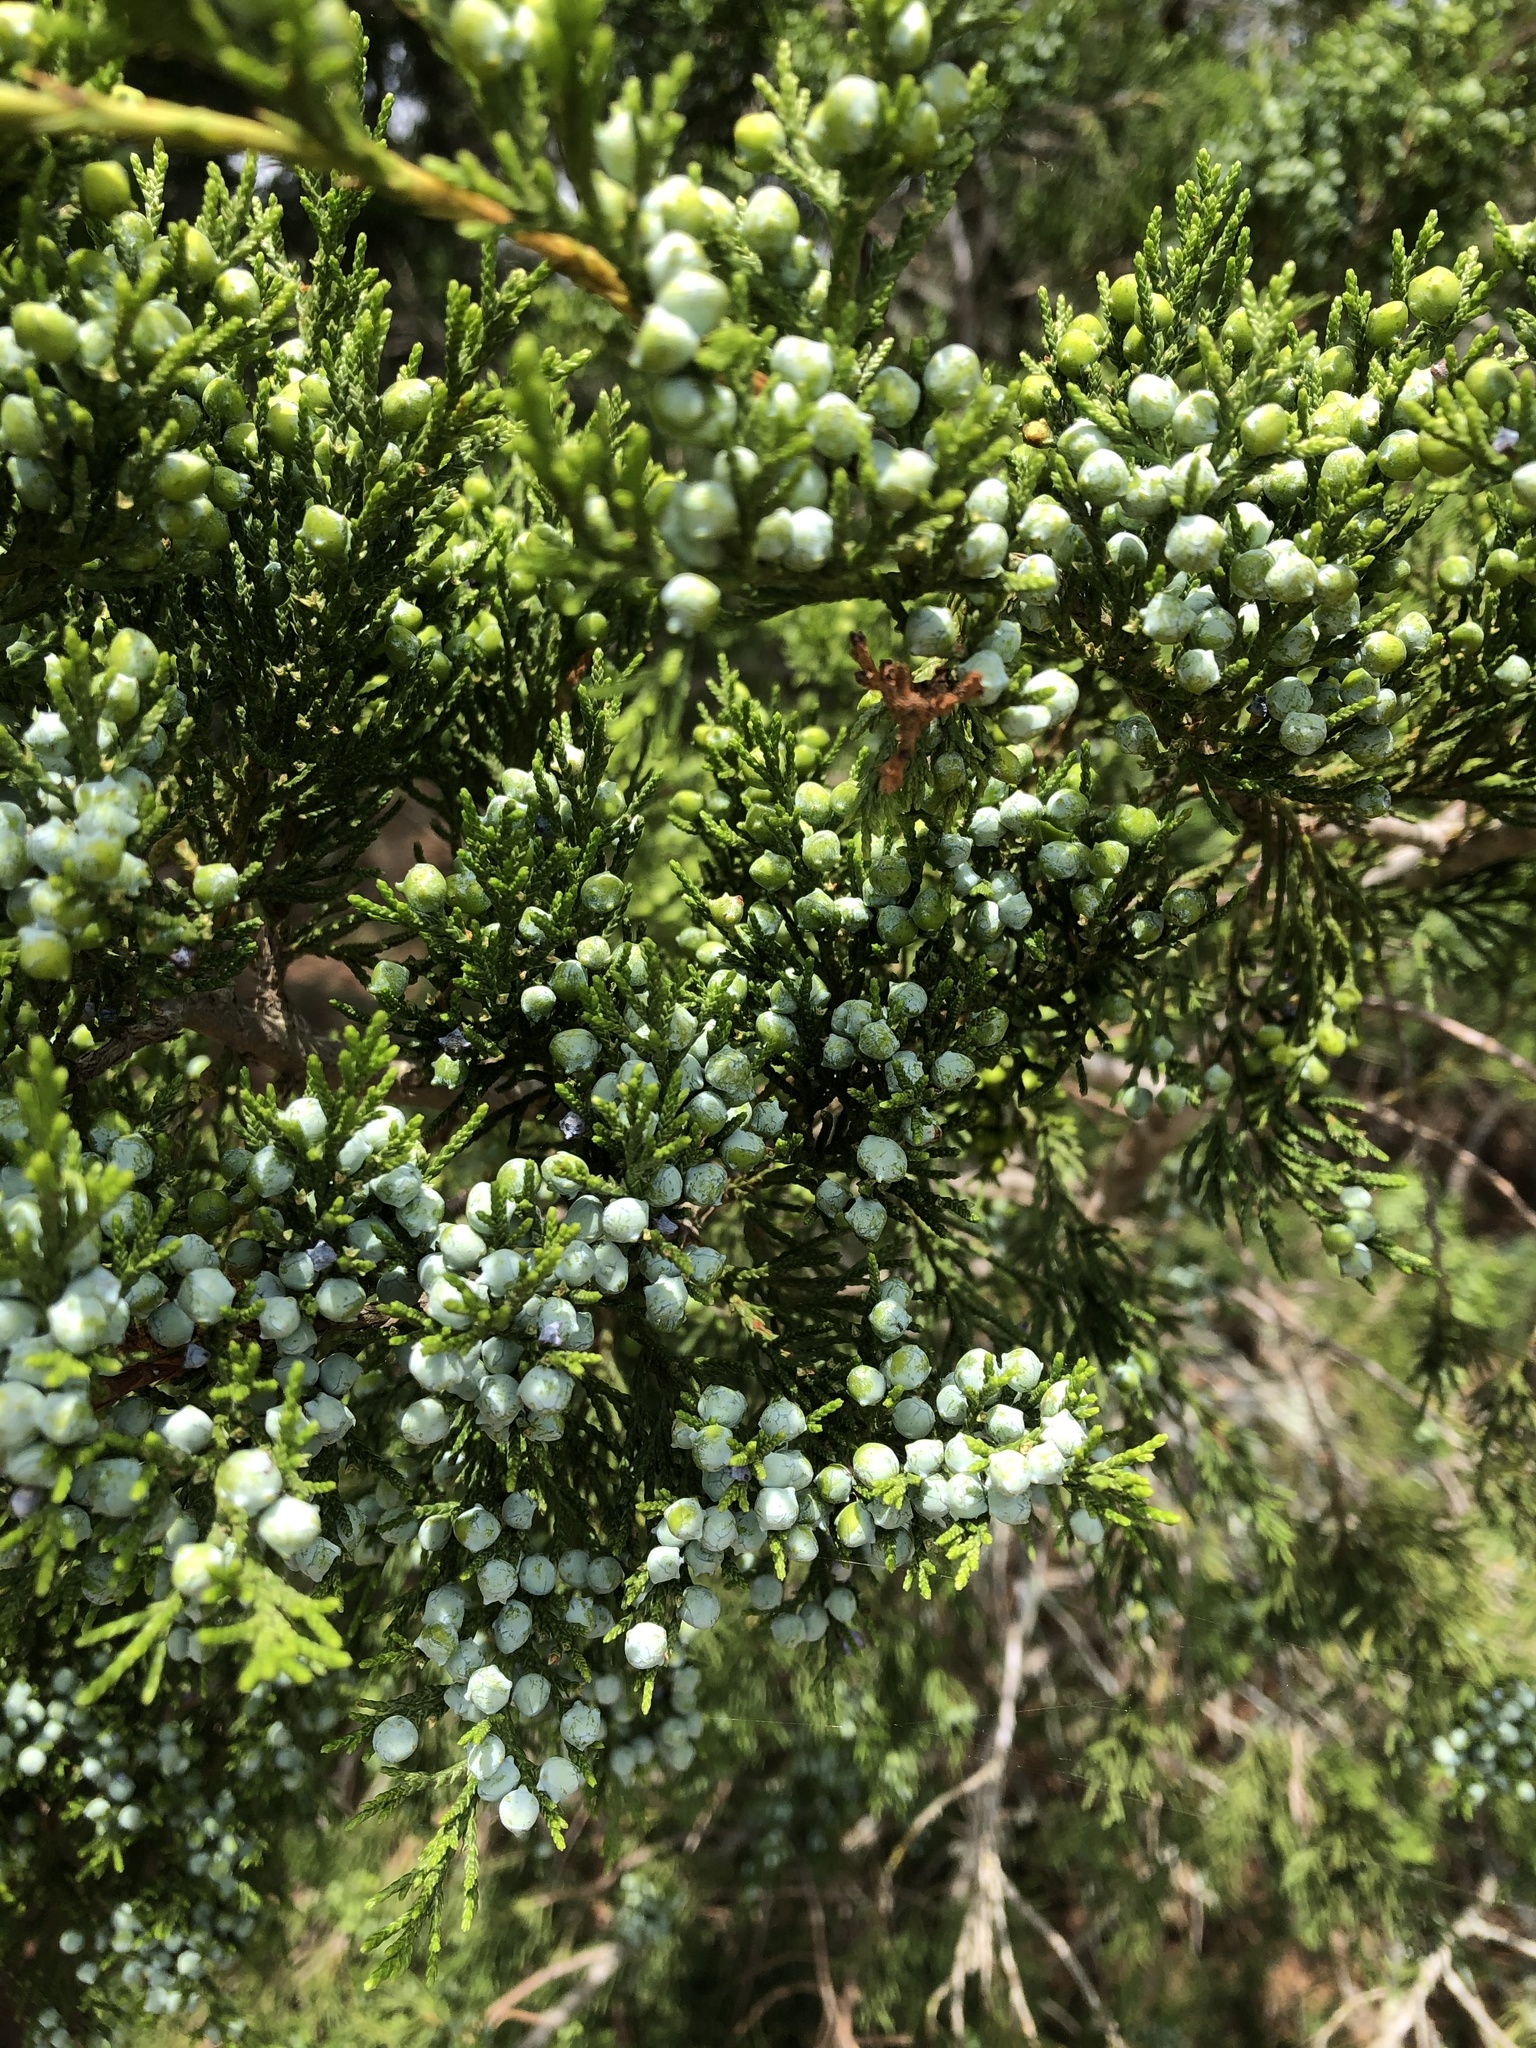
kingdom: Plantae
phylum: Tracheophyta
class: Pinopsida
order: Pinales
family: Cupressaceae
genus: Juniperus
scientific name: Juniperus virginiana
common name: Red juniper
